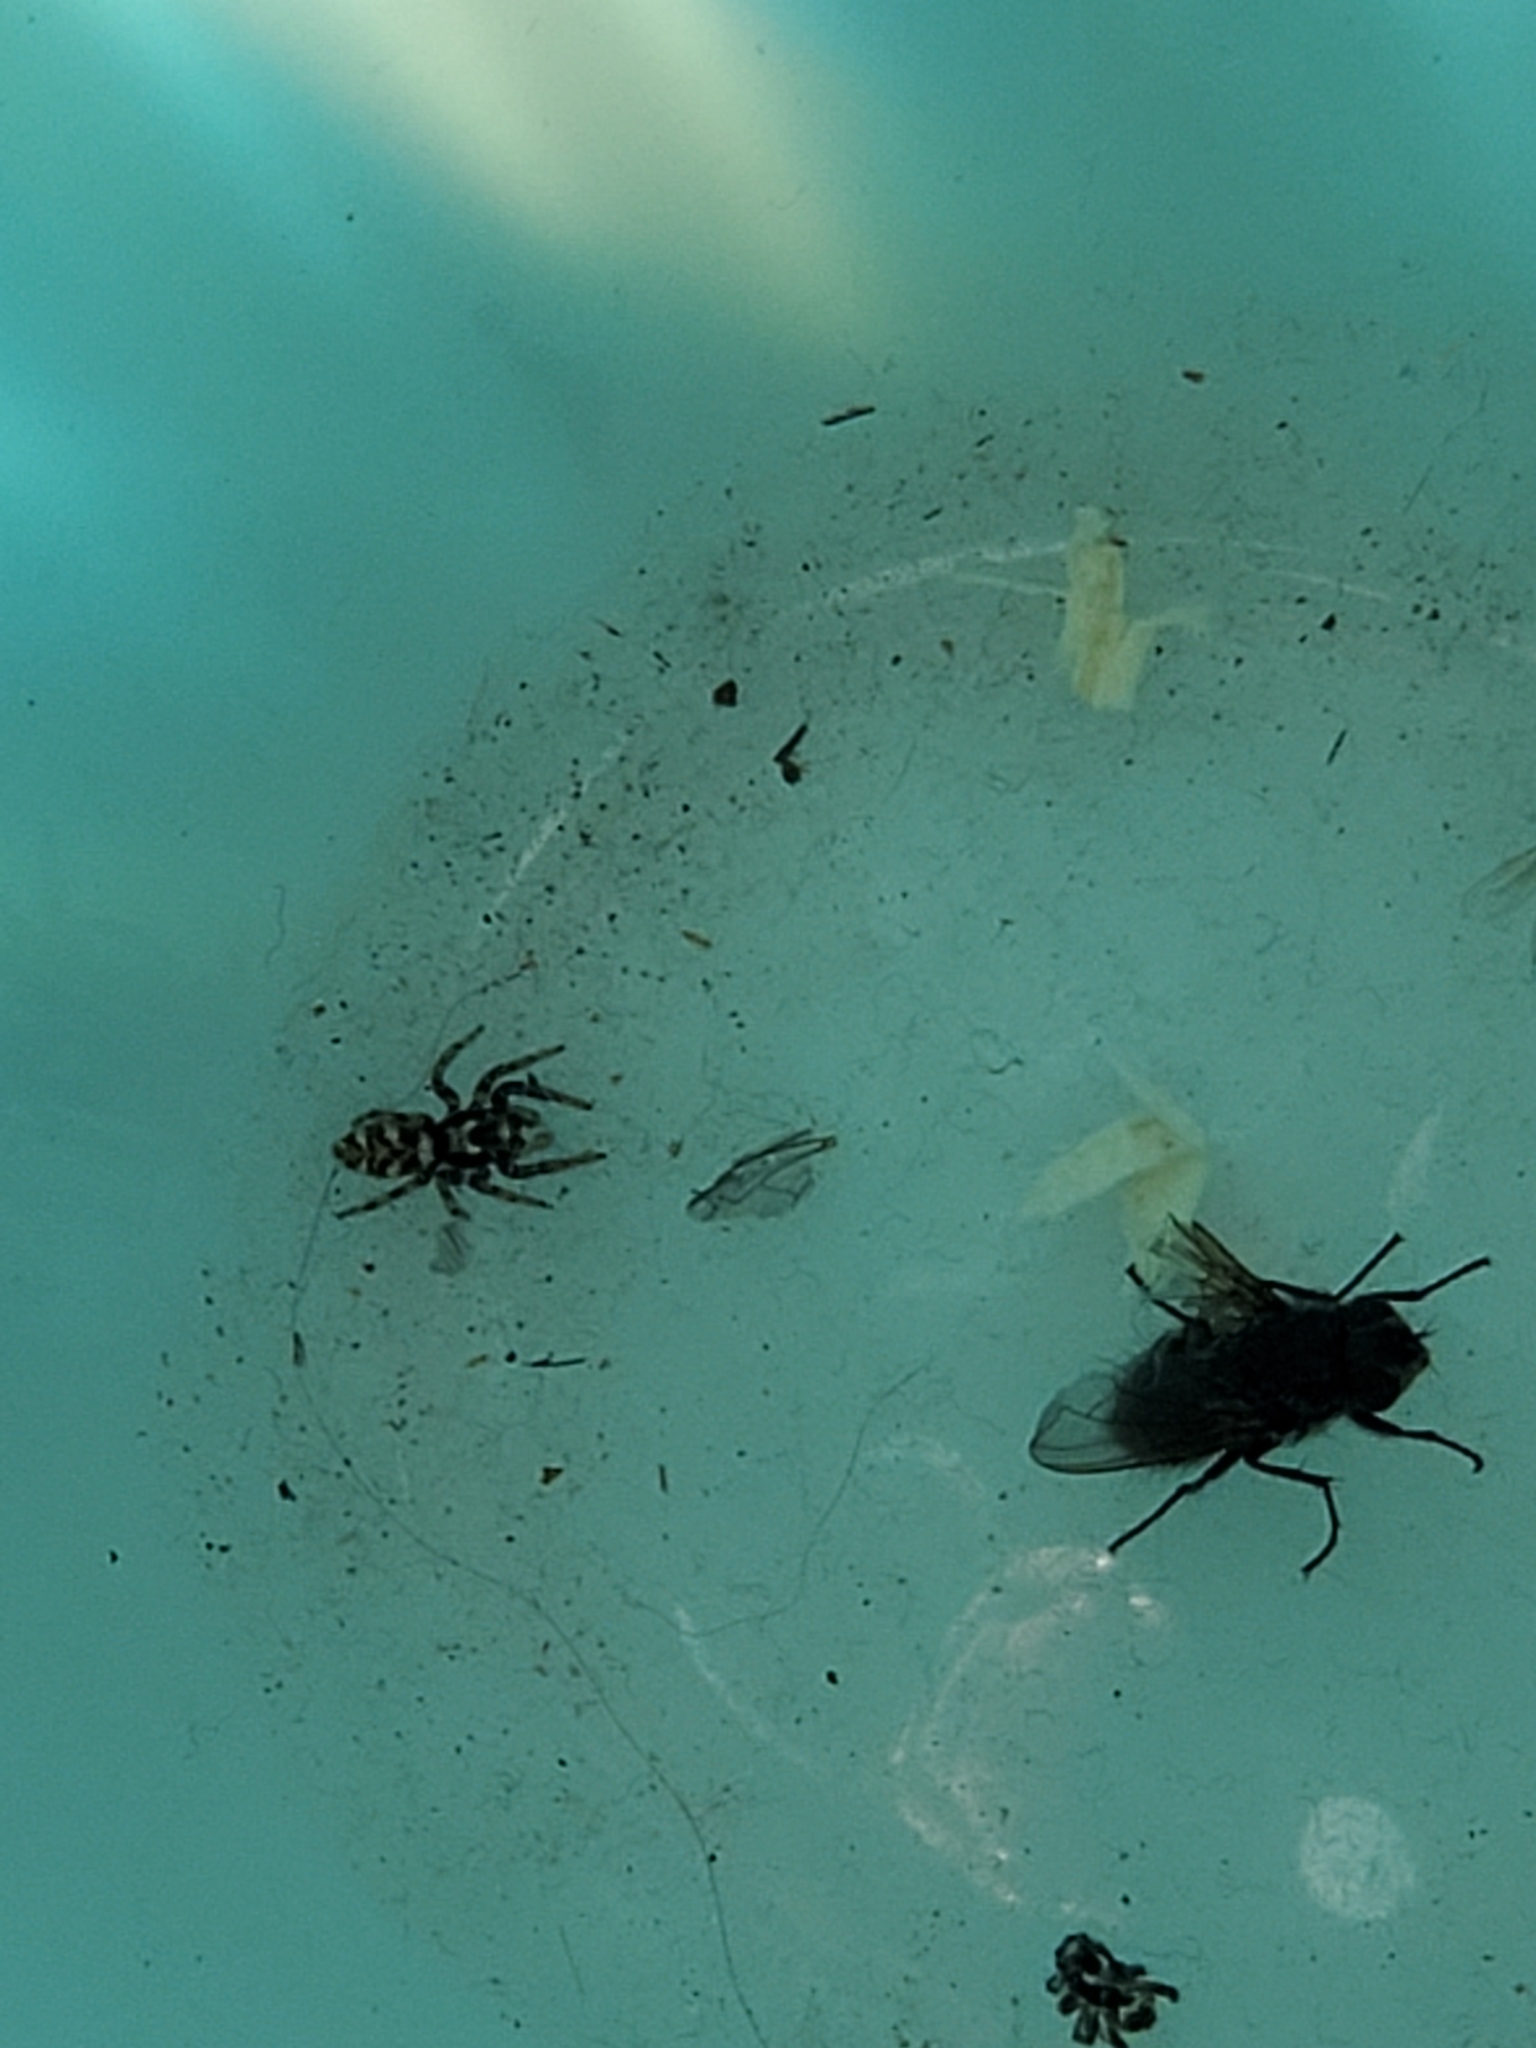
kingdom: Animalia
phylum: Arthropoda
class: Arachnida
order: Araneae
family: Salticidae
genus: Salticus
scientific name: Salticus scenicus
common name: Zebra jumper
